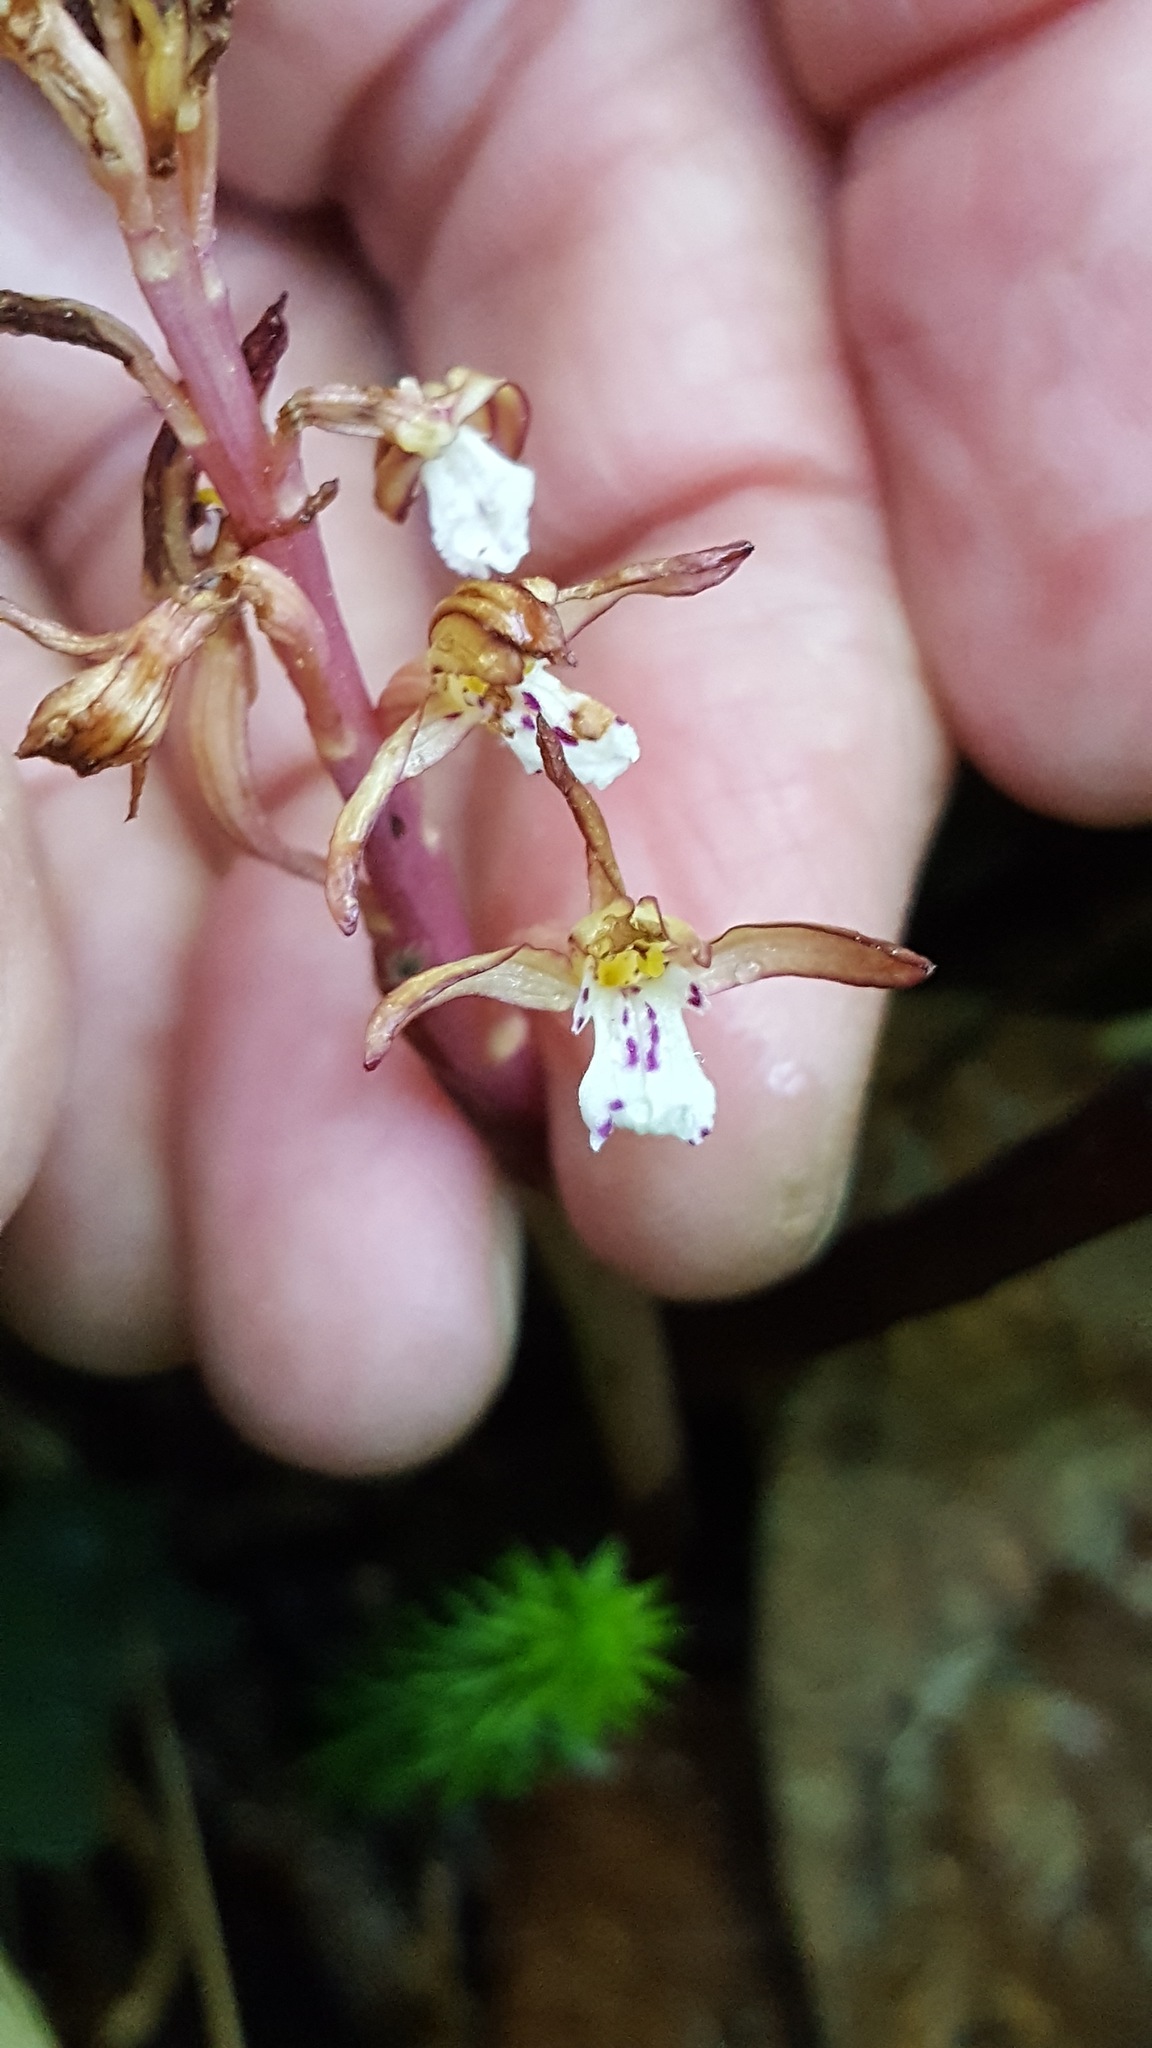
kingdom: Plantae
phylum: Tracheophyta
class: Liliopsida
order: Asparagales
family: Orchidaceae
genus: Corallorhiza
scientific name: Corallorhiza maculata
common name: Spotted coralroot
